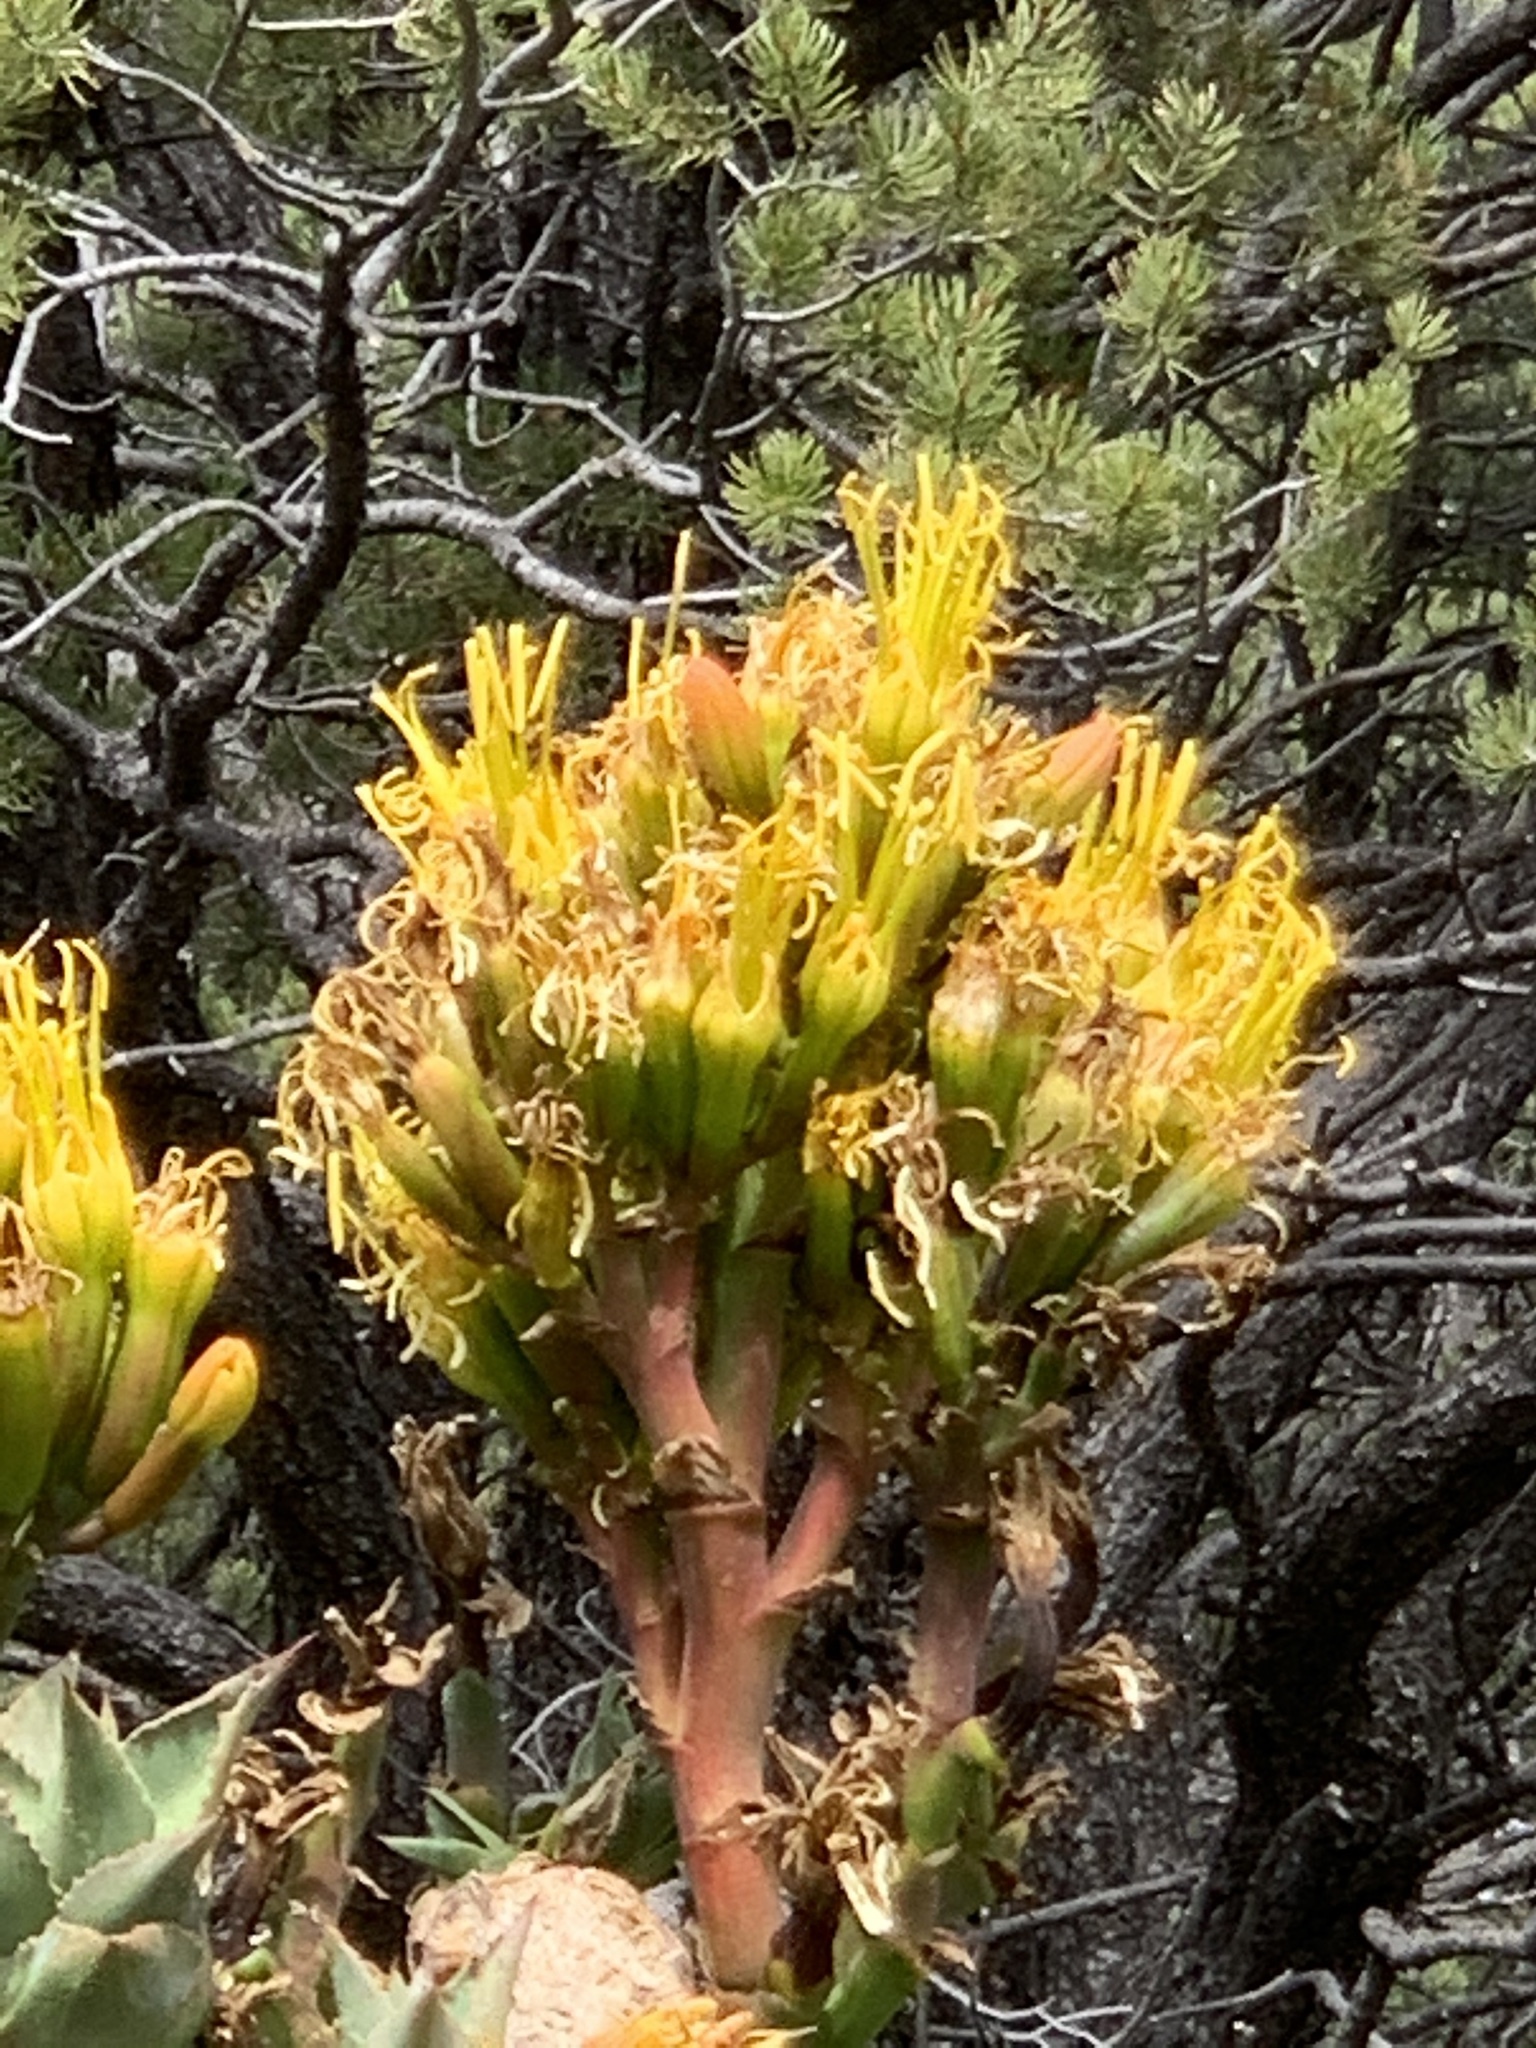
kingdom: Plantae
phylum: Tracheophyta
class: Liliopsida
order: Asparagales
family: Asparagaceae
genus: Agave
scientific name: Agave parryi
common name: Parry's agave
